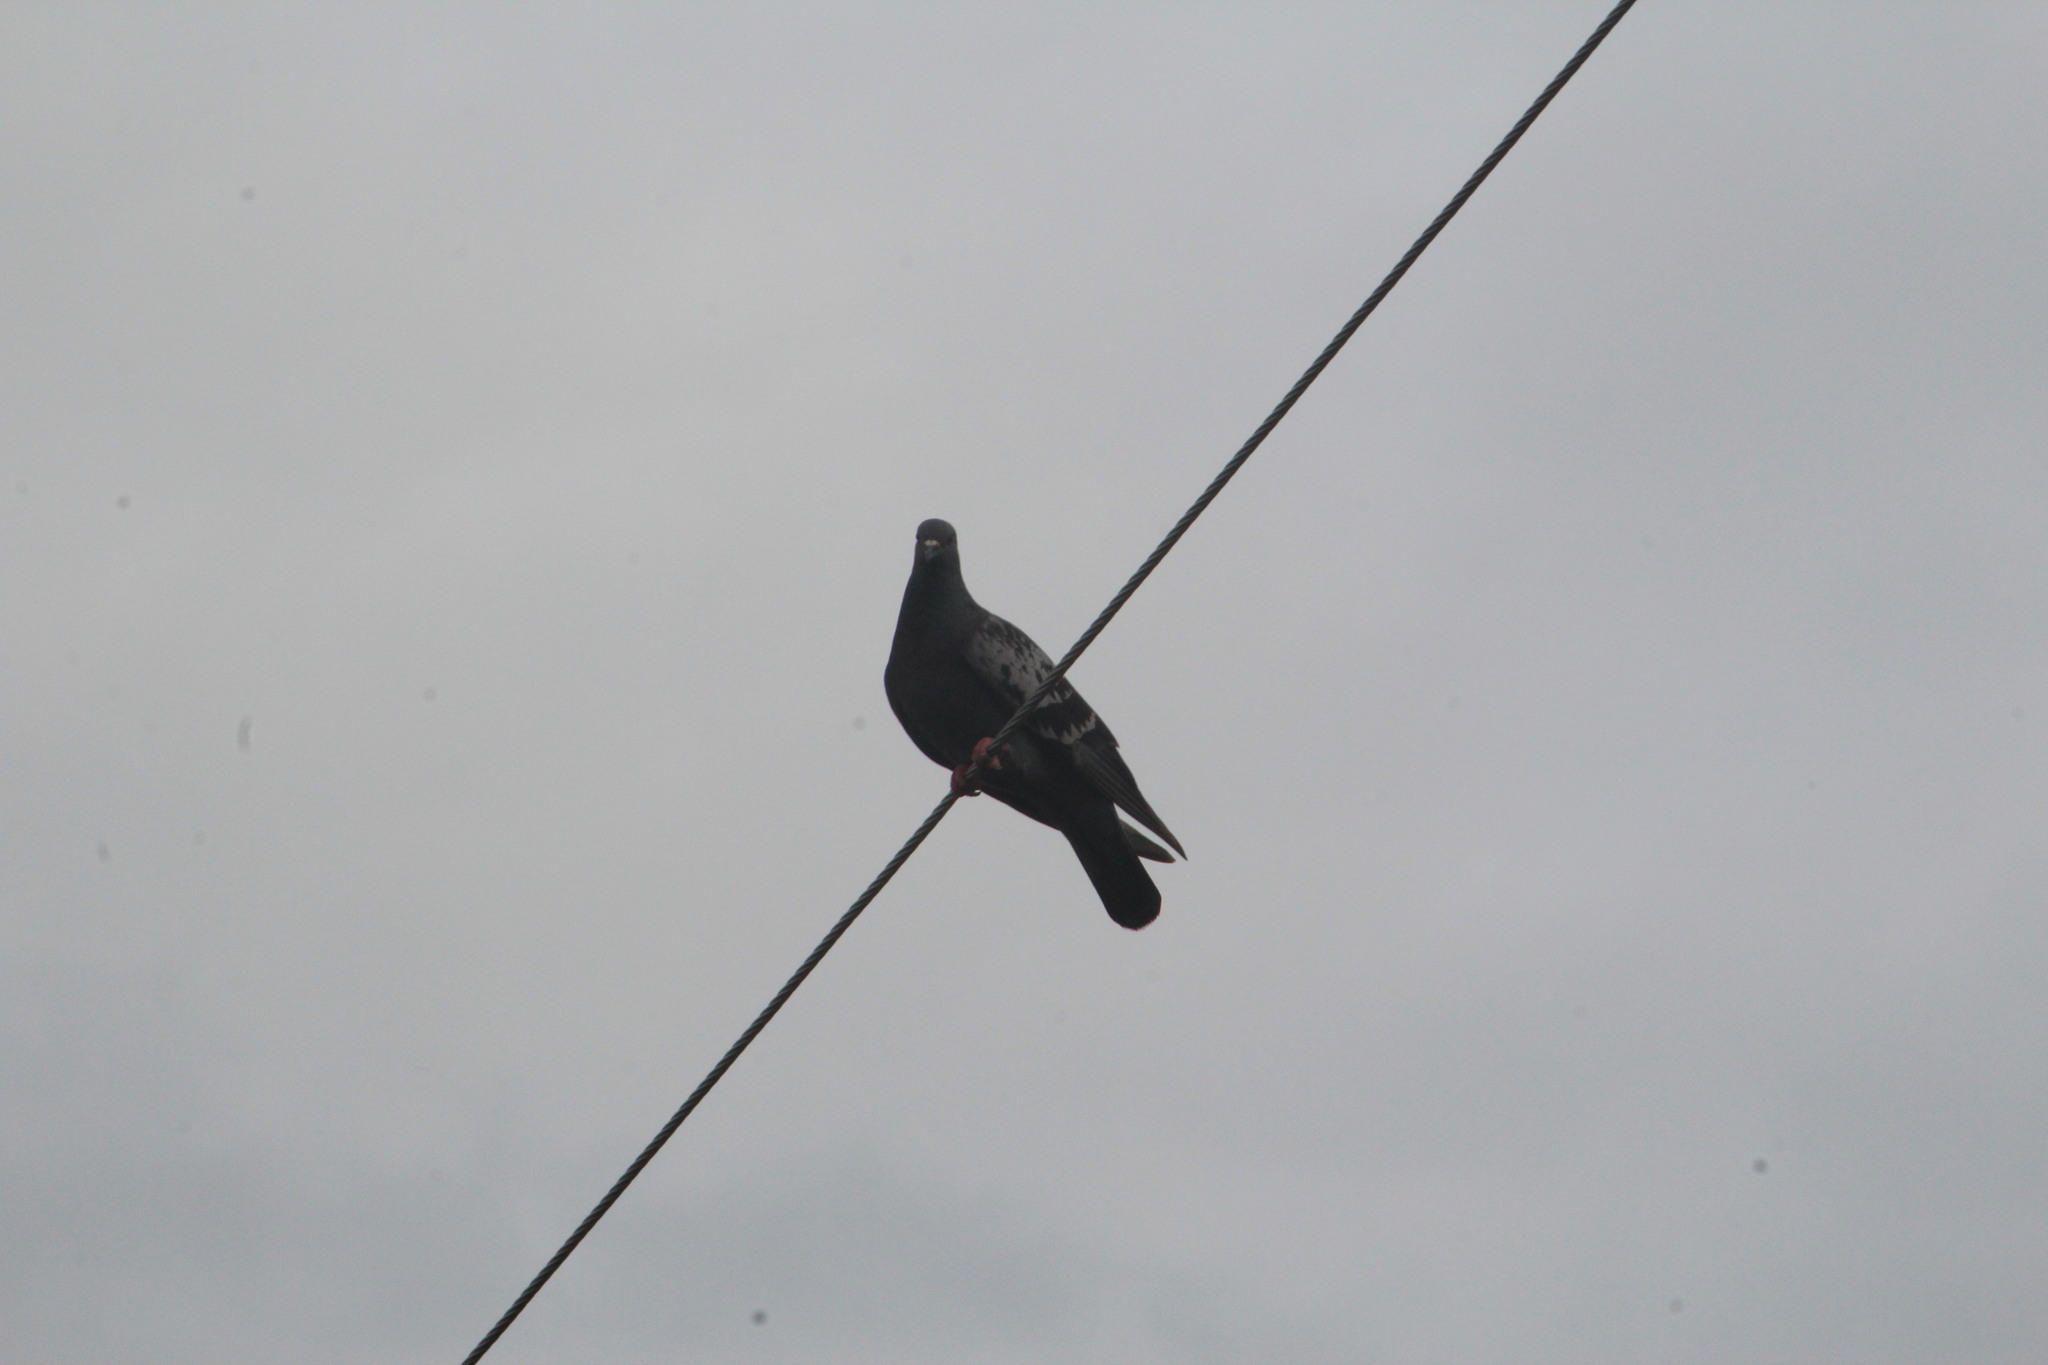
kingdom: Animalia
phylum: Chordata
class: Aves
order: Columbiformes
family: Columbidae
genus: Columba
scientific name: Columba livia
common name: Rock pigeon
